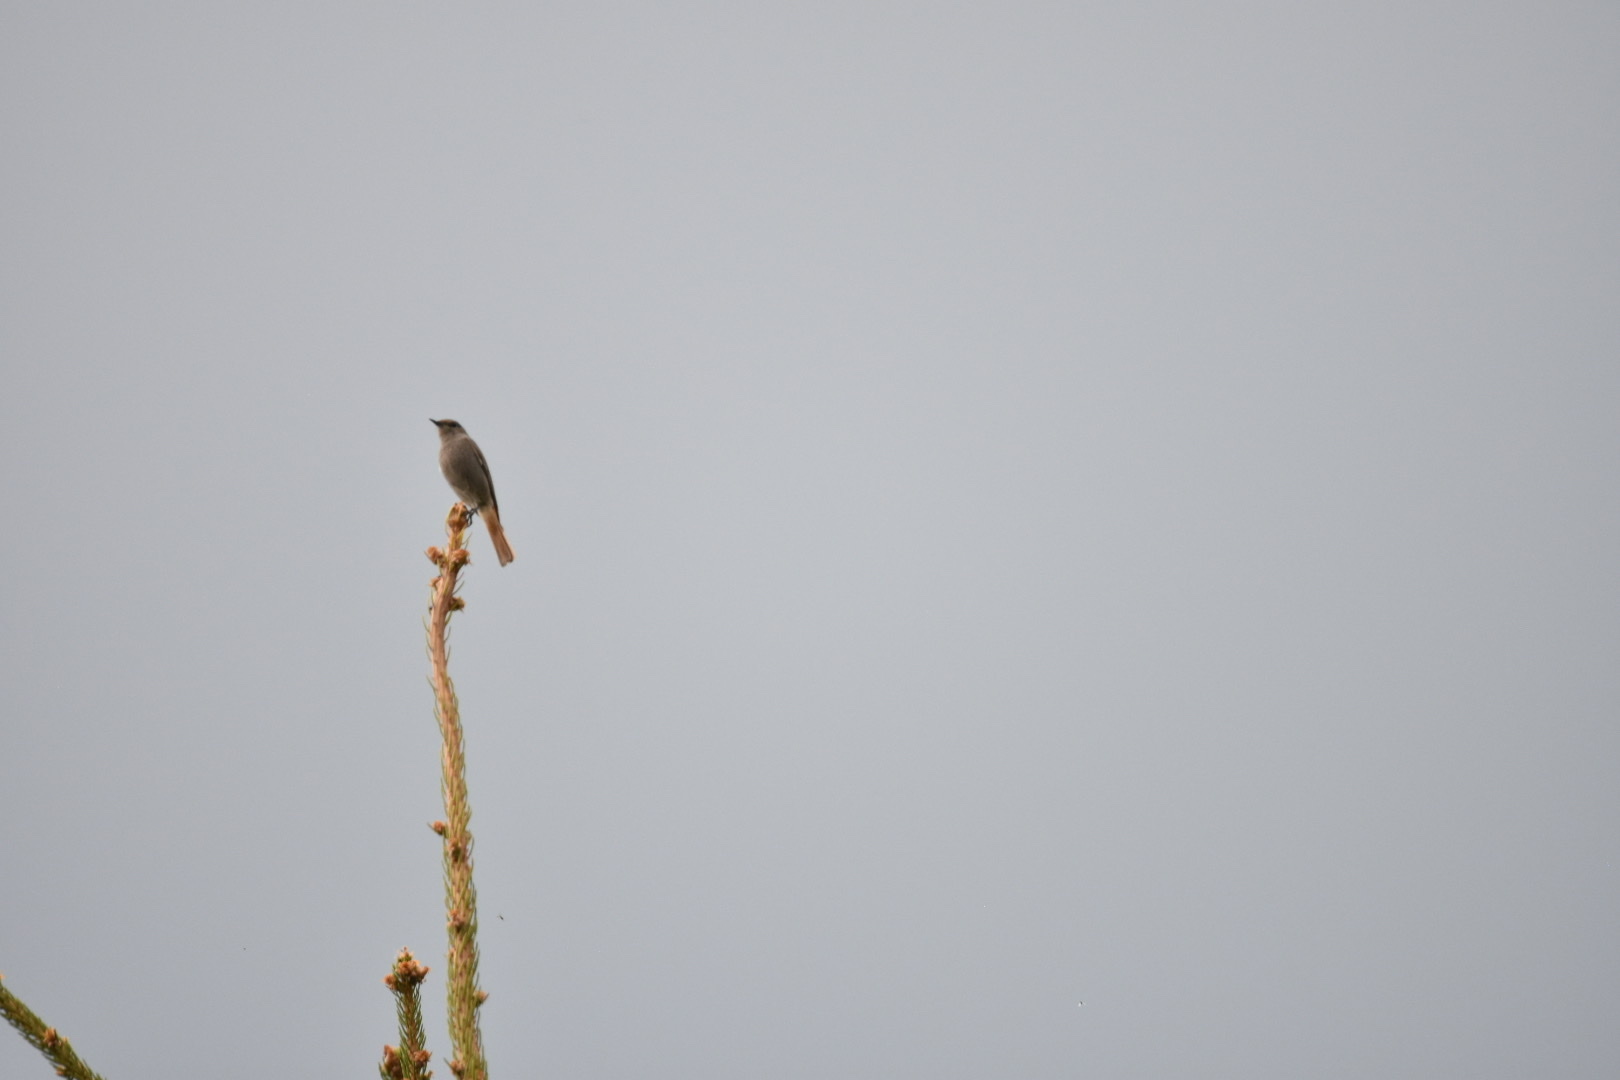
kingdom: Animalia
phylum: Chordata
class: Aves
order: Passeriformes
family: Muscicapidae
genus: Phoenicurus
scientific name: Phoenicurus ochruros
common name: Black redstart
